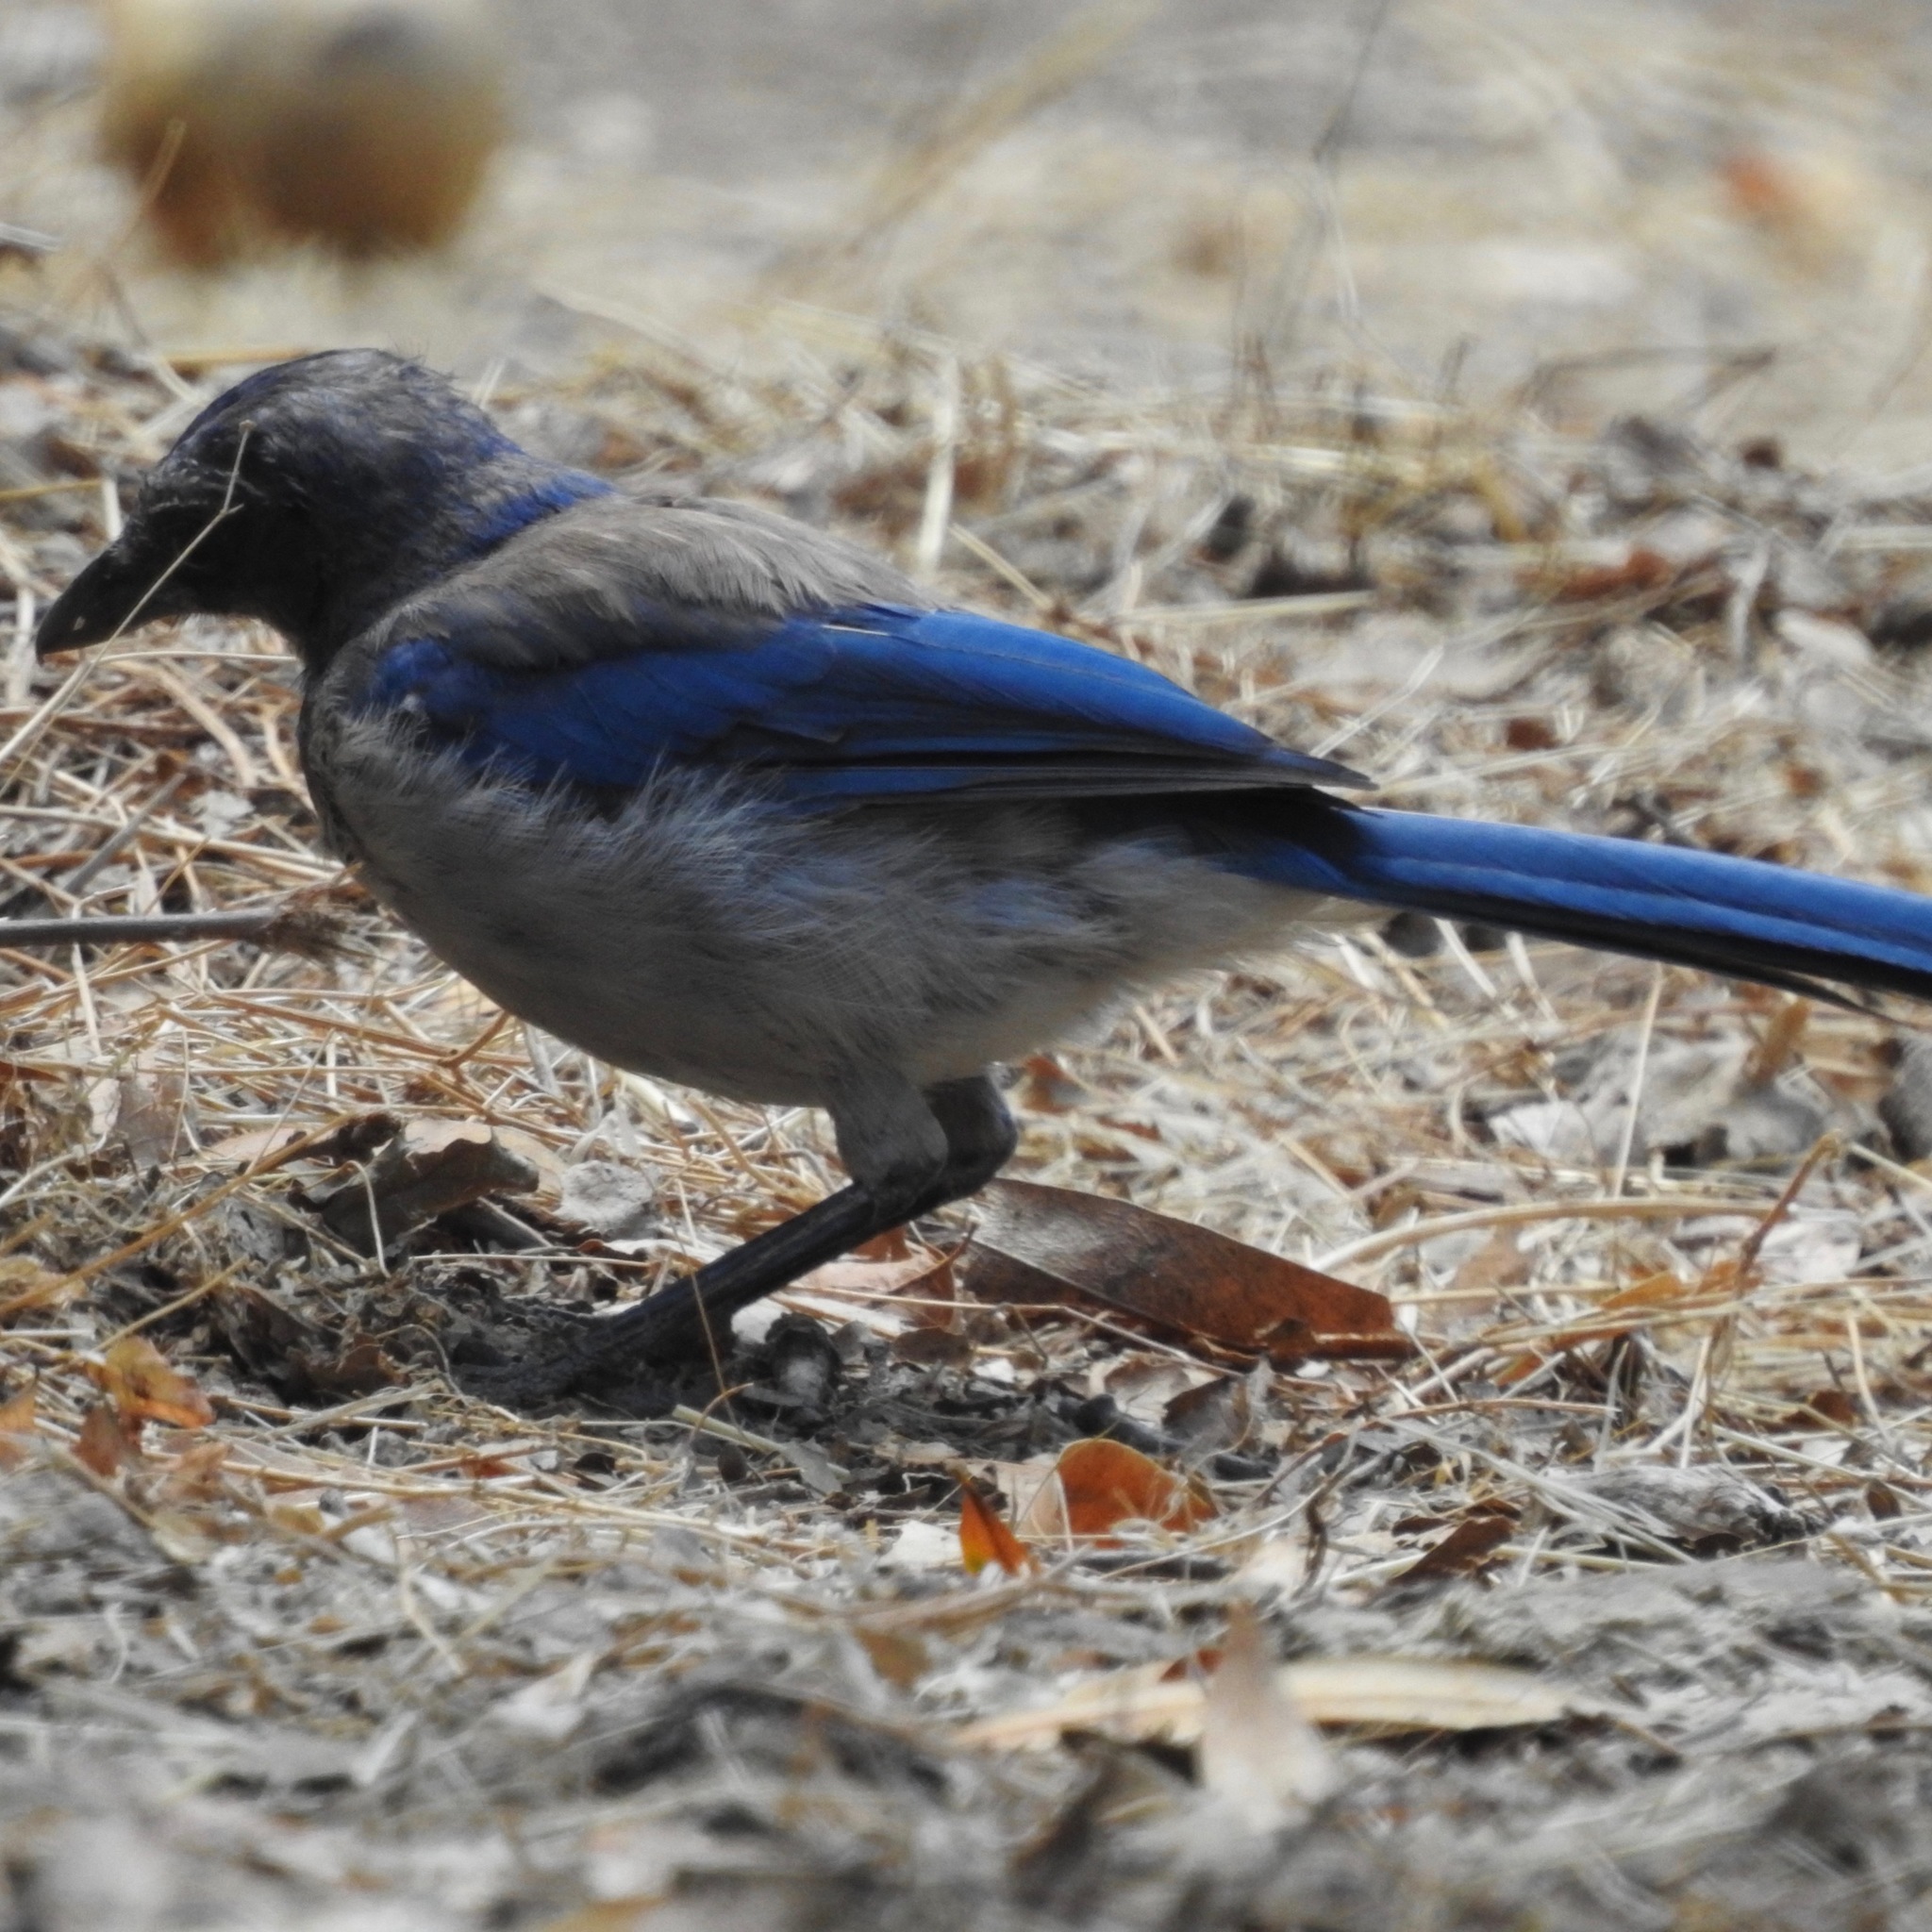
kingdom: Animalia
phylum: Chordata
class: Aves
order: Passeriformes
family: Corvidae
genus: Aphelocoma
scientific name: Aphelocoma californica
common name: California scrub-jay
